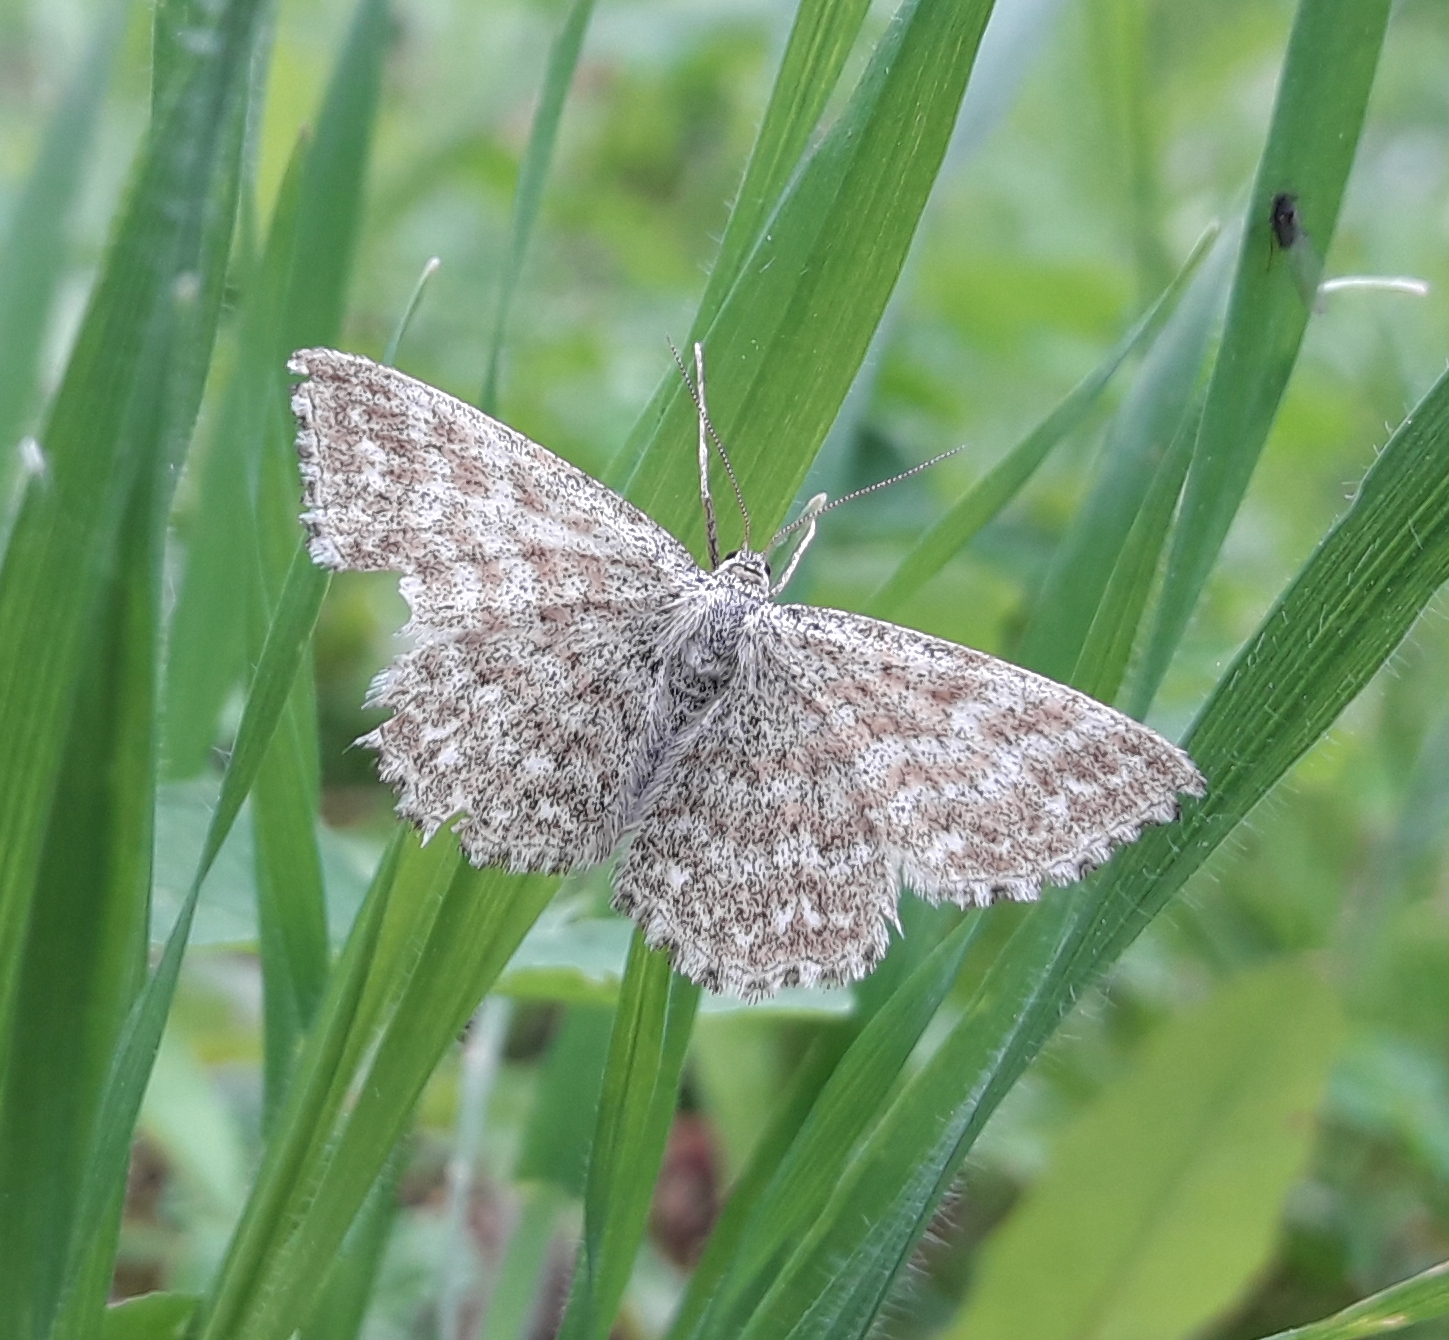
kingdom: Animalia
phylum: Arthropoda
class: Insecta
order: Lepidoptera
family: Geometridae
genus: Scopula
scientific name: Scopula immorata
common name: Lewes wave
